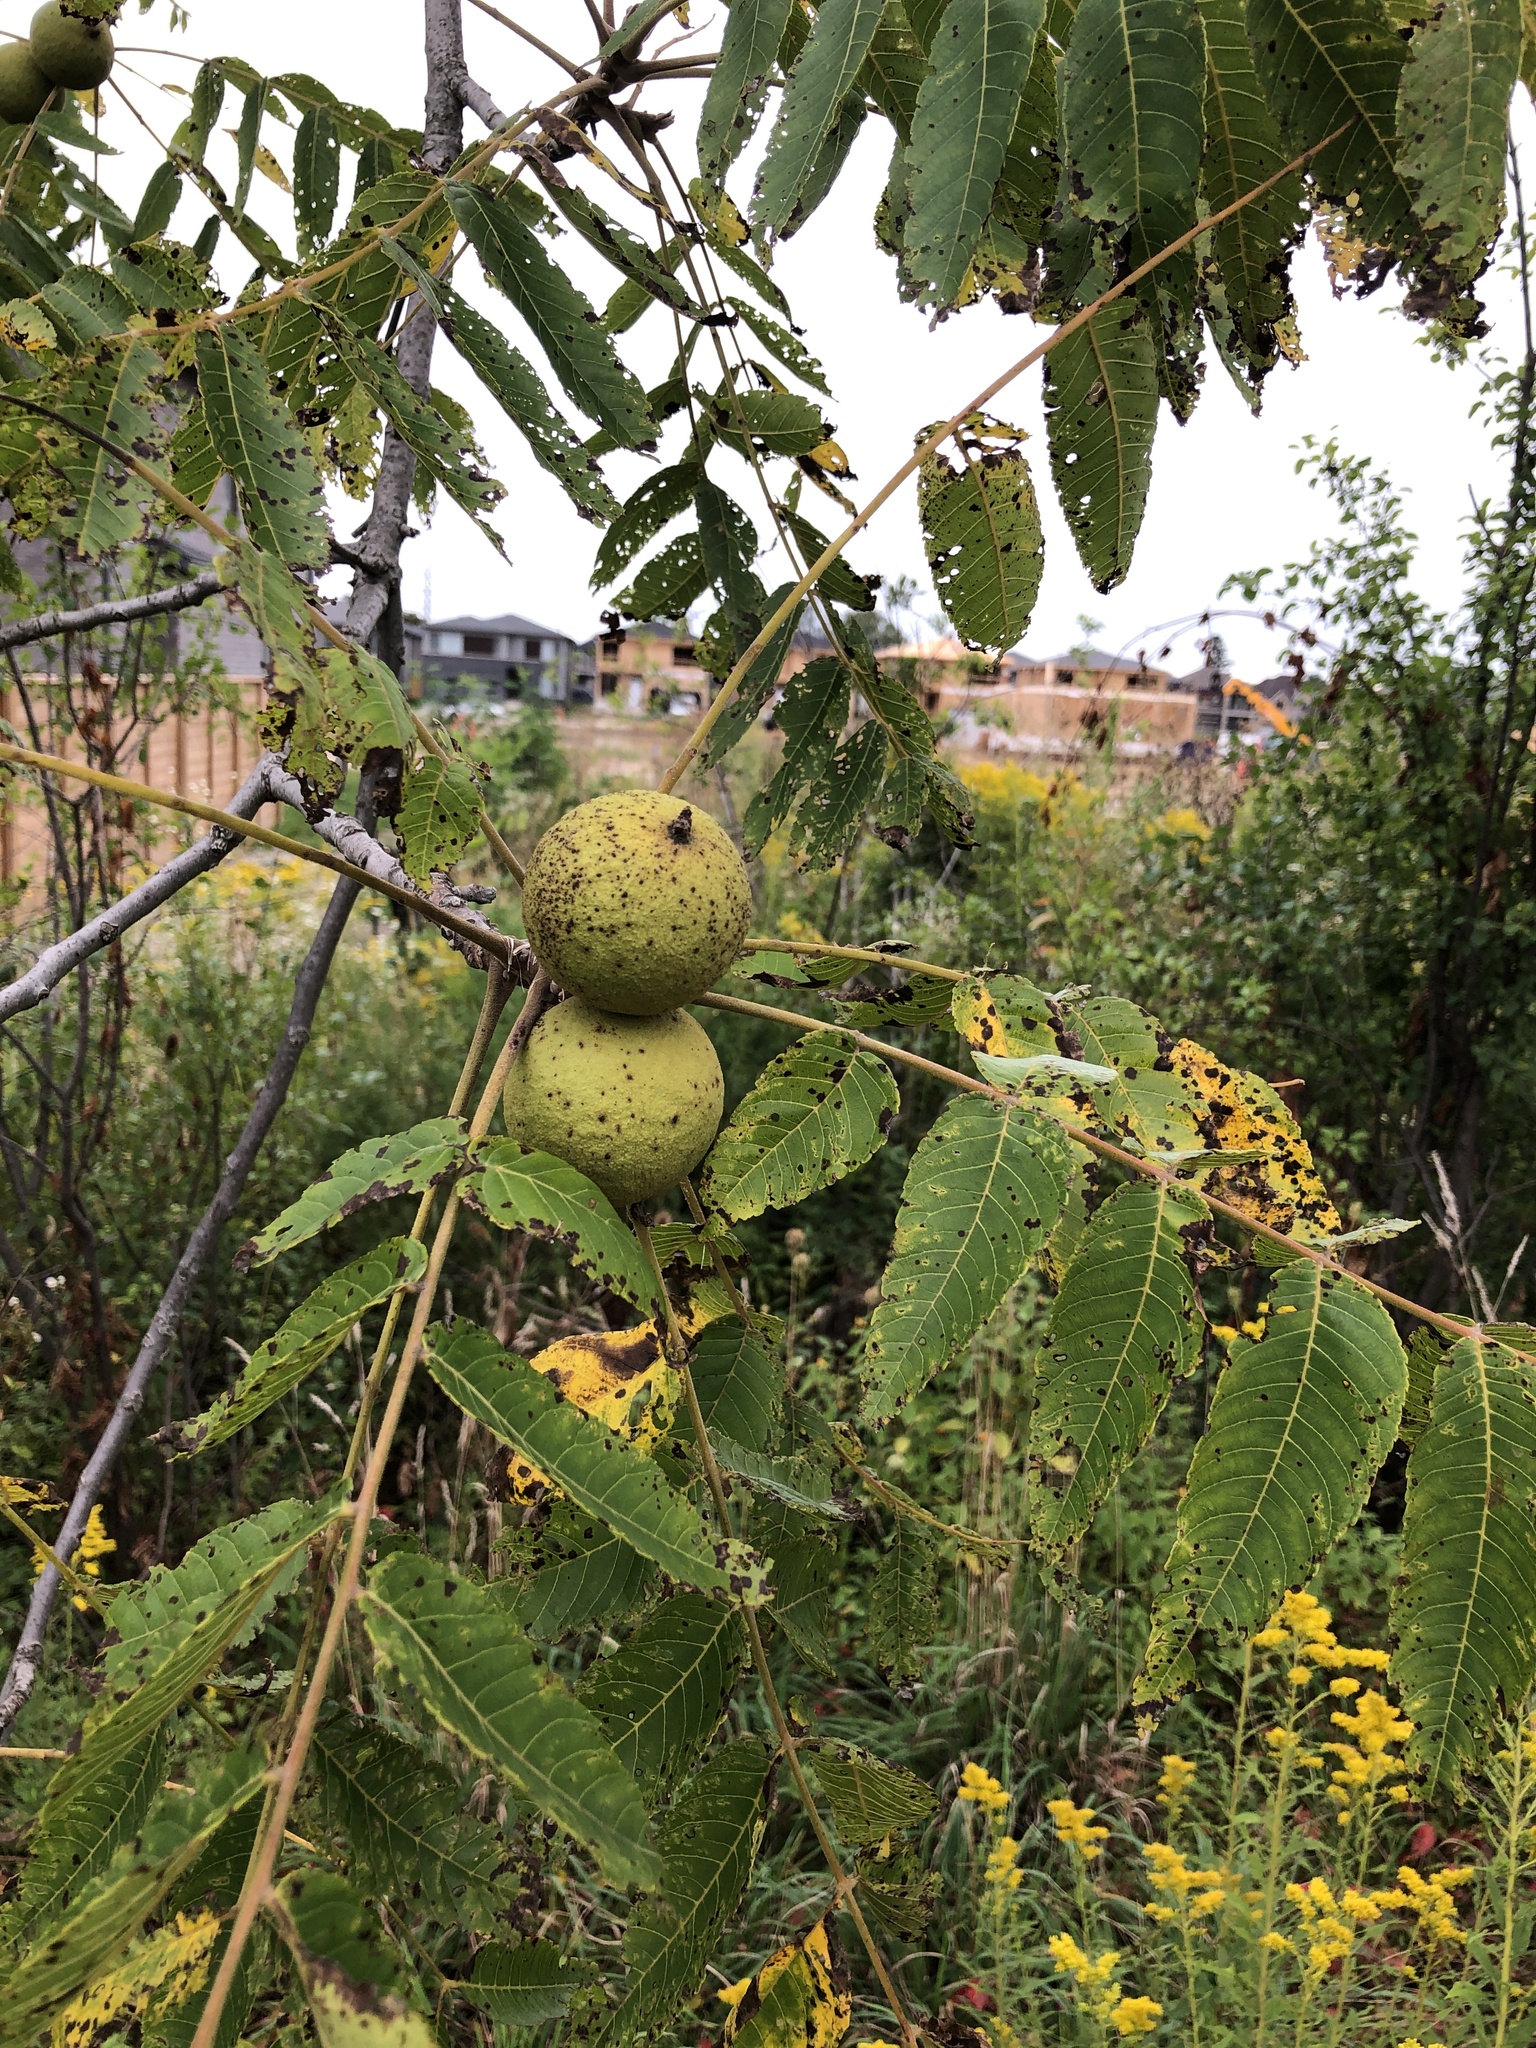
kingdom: Plantae
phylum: Tracheophyta
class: Magnoliopsida
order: Fagales
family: Juglandaceae
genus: Juglans
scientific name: Juglans nigra
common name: Black walnut
